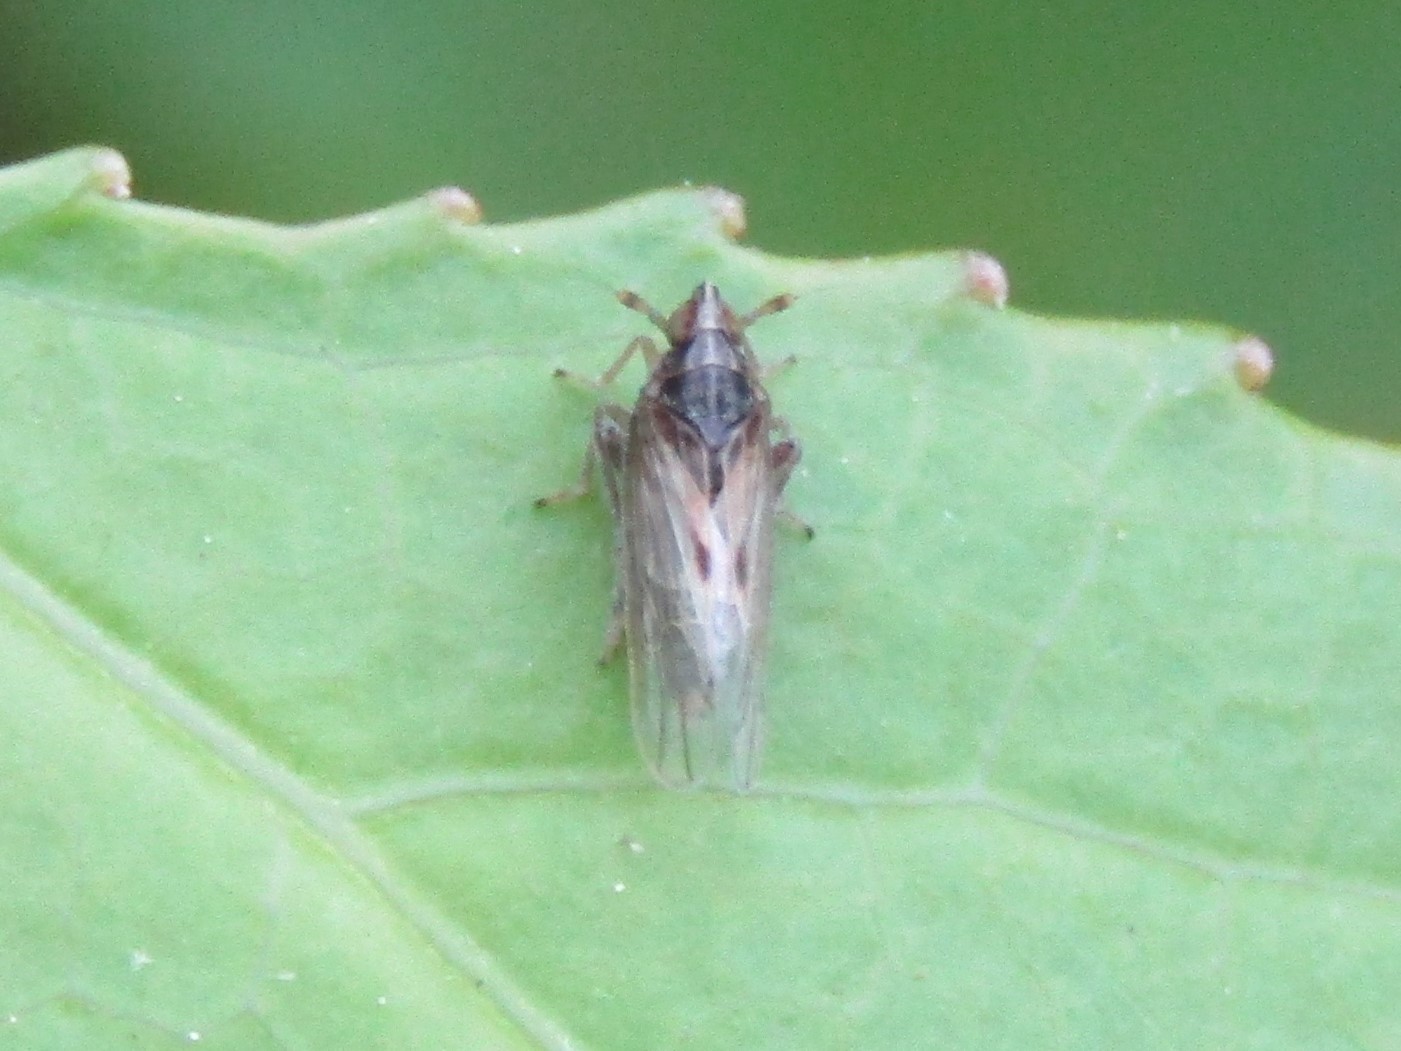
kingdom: Animalia
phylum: Arthropoda
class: Insecta
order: Hemiptera
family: Delphacidae
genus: Megamelus
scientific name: Megamelus davisi
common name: Planthopper
